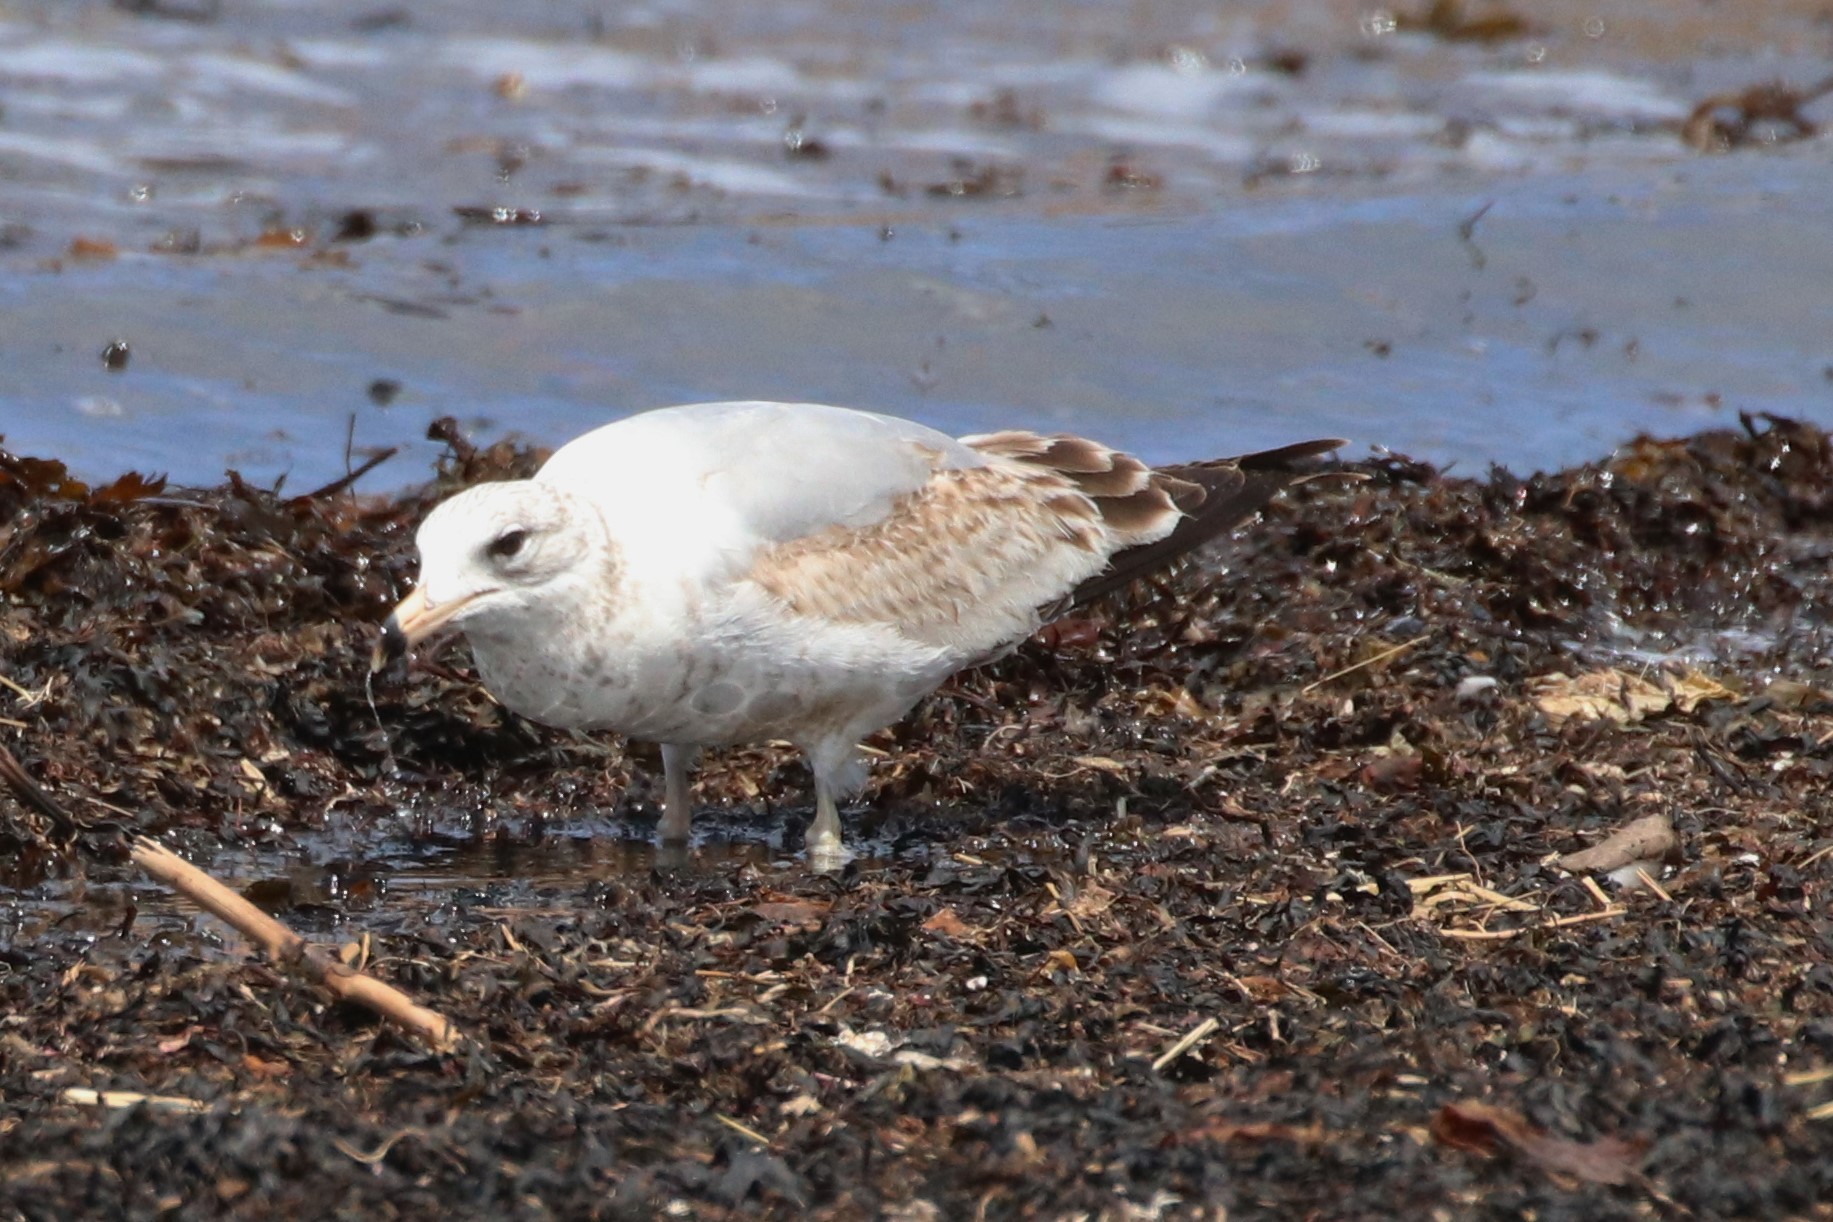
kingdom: Animalia
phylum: Chordata
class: Aves
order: Charadriiformes
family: Laridae
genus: Larus
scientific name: Larus delawarensis
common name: Ring-billed gull
